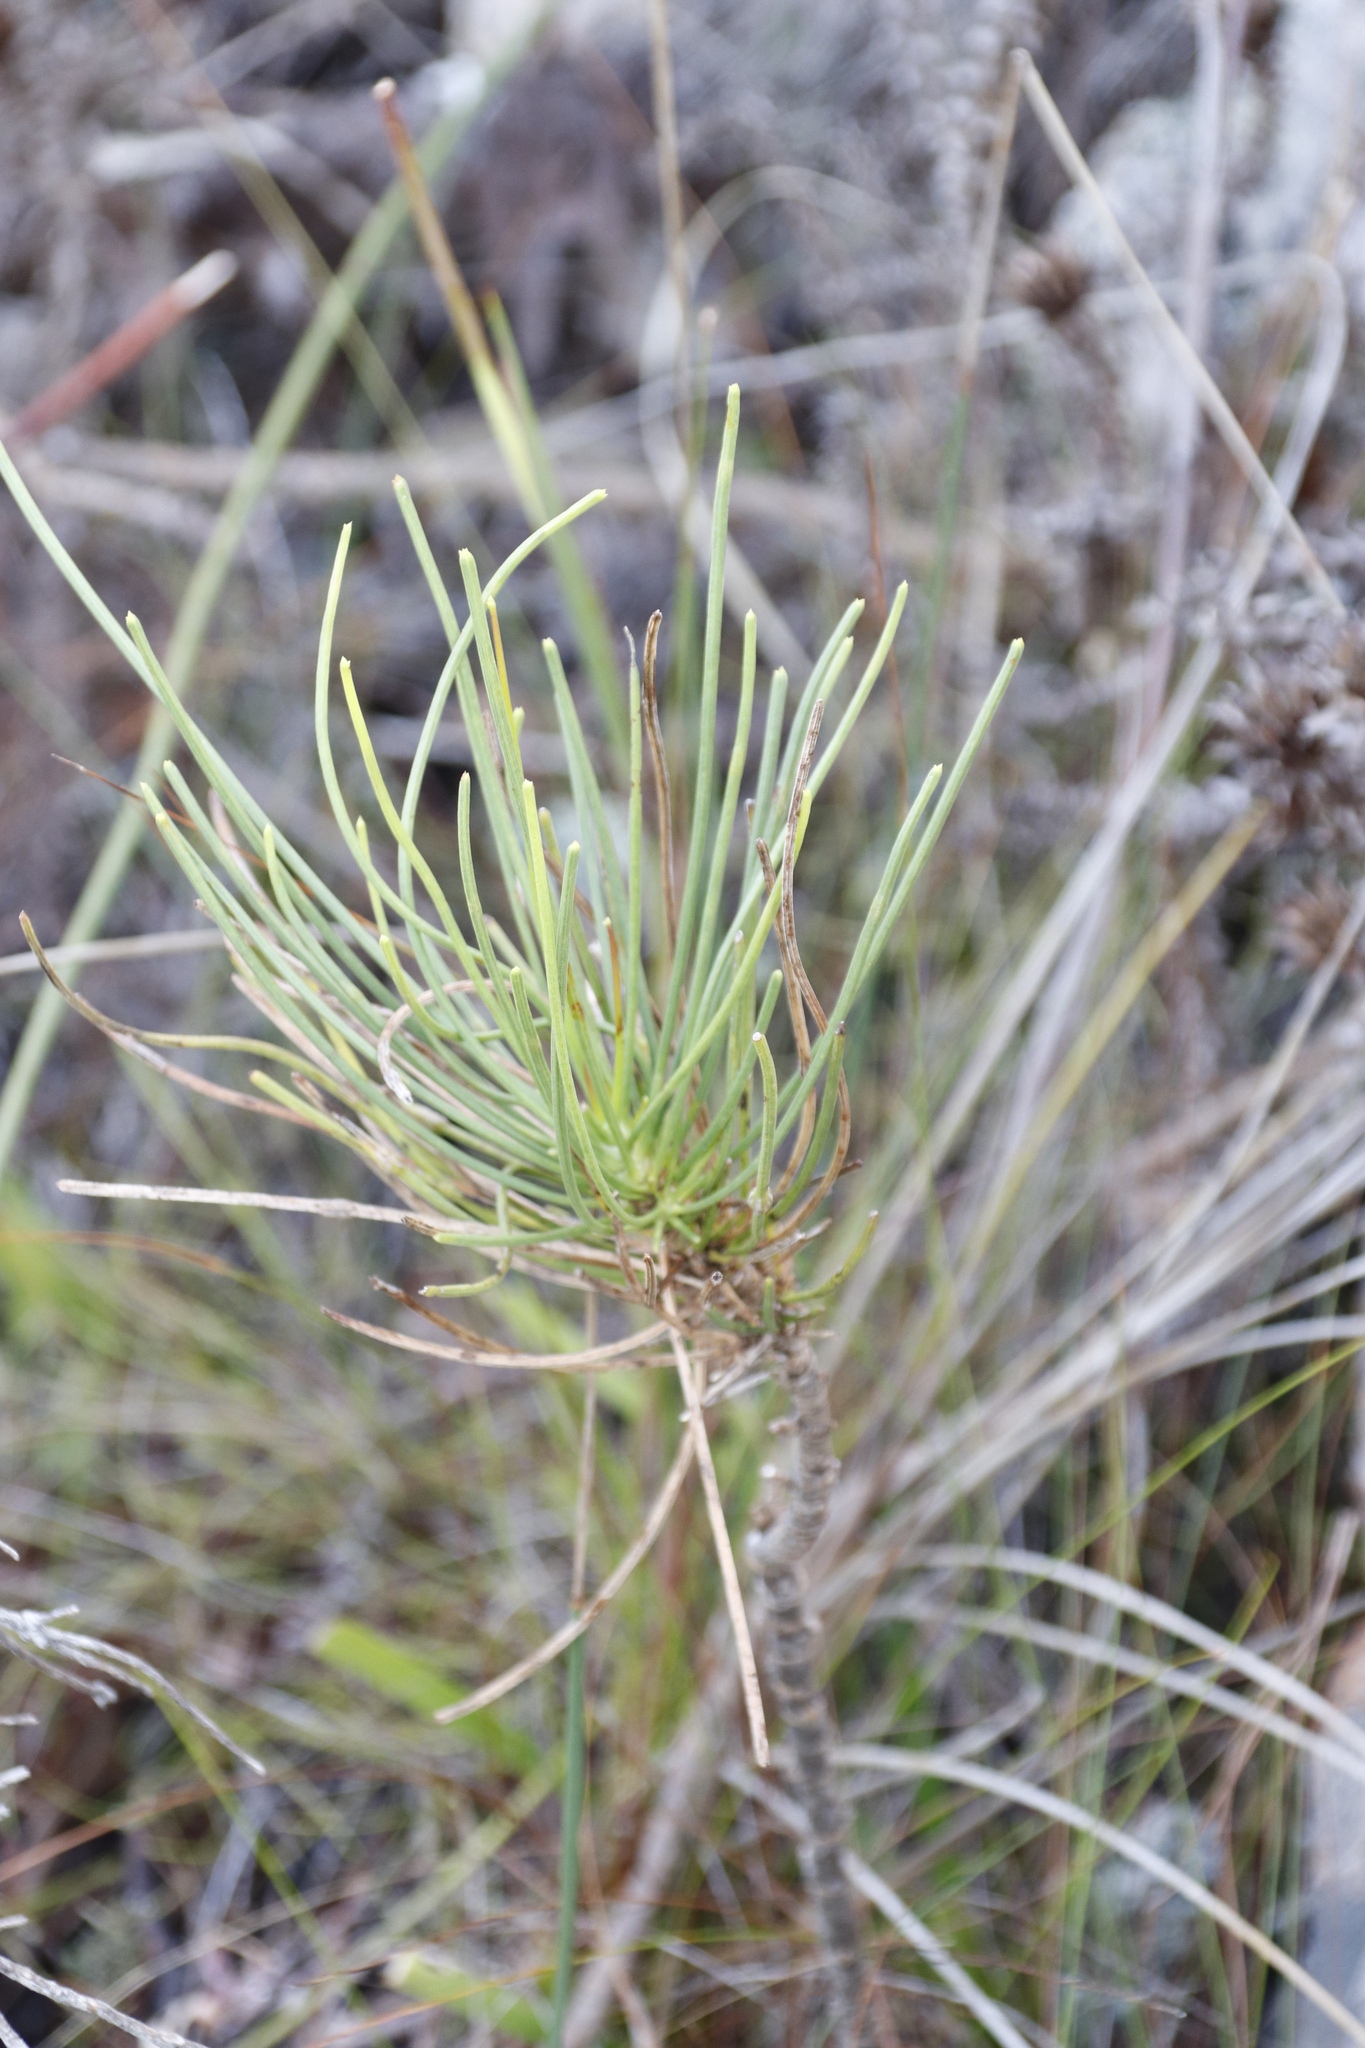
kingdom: Plantae
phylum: Tracheophyta
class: Magnoliopsida
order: Apiales
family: Apiaceae
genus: Anginon
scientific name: Anginon difforme
